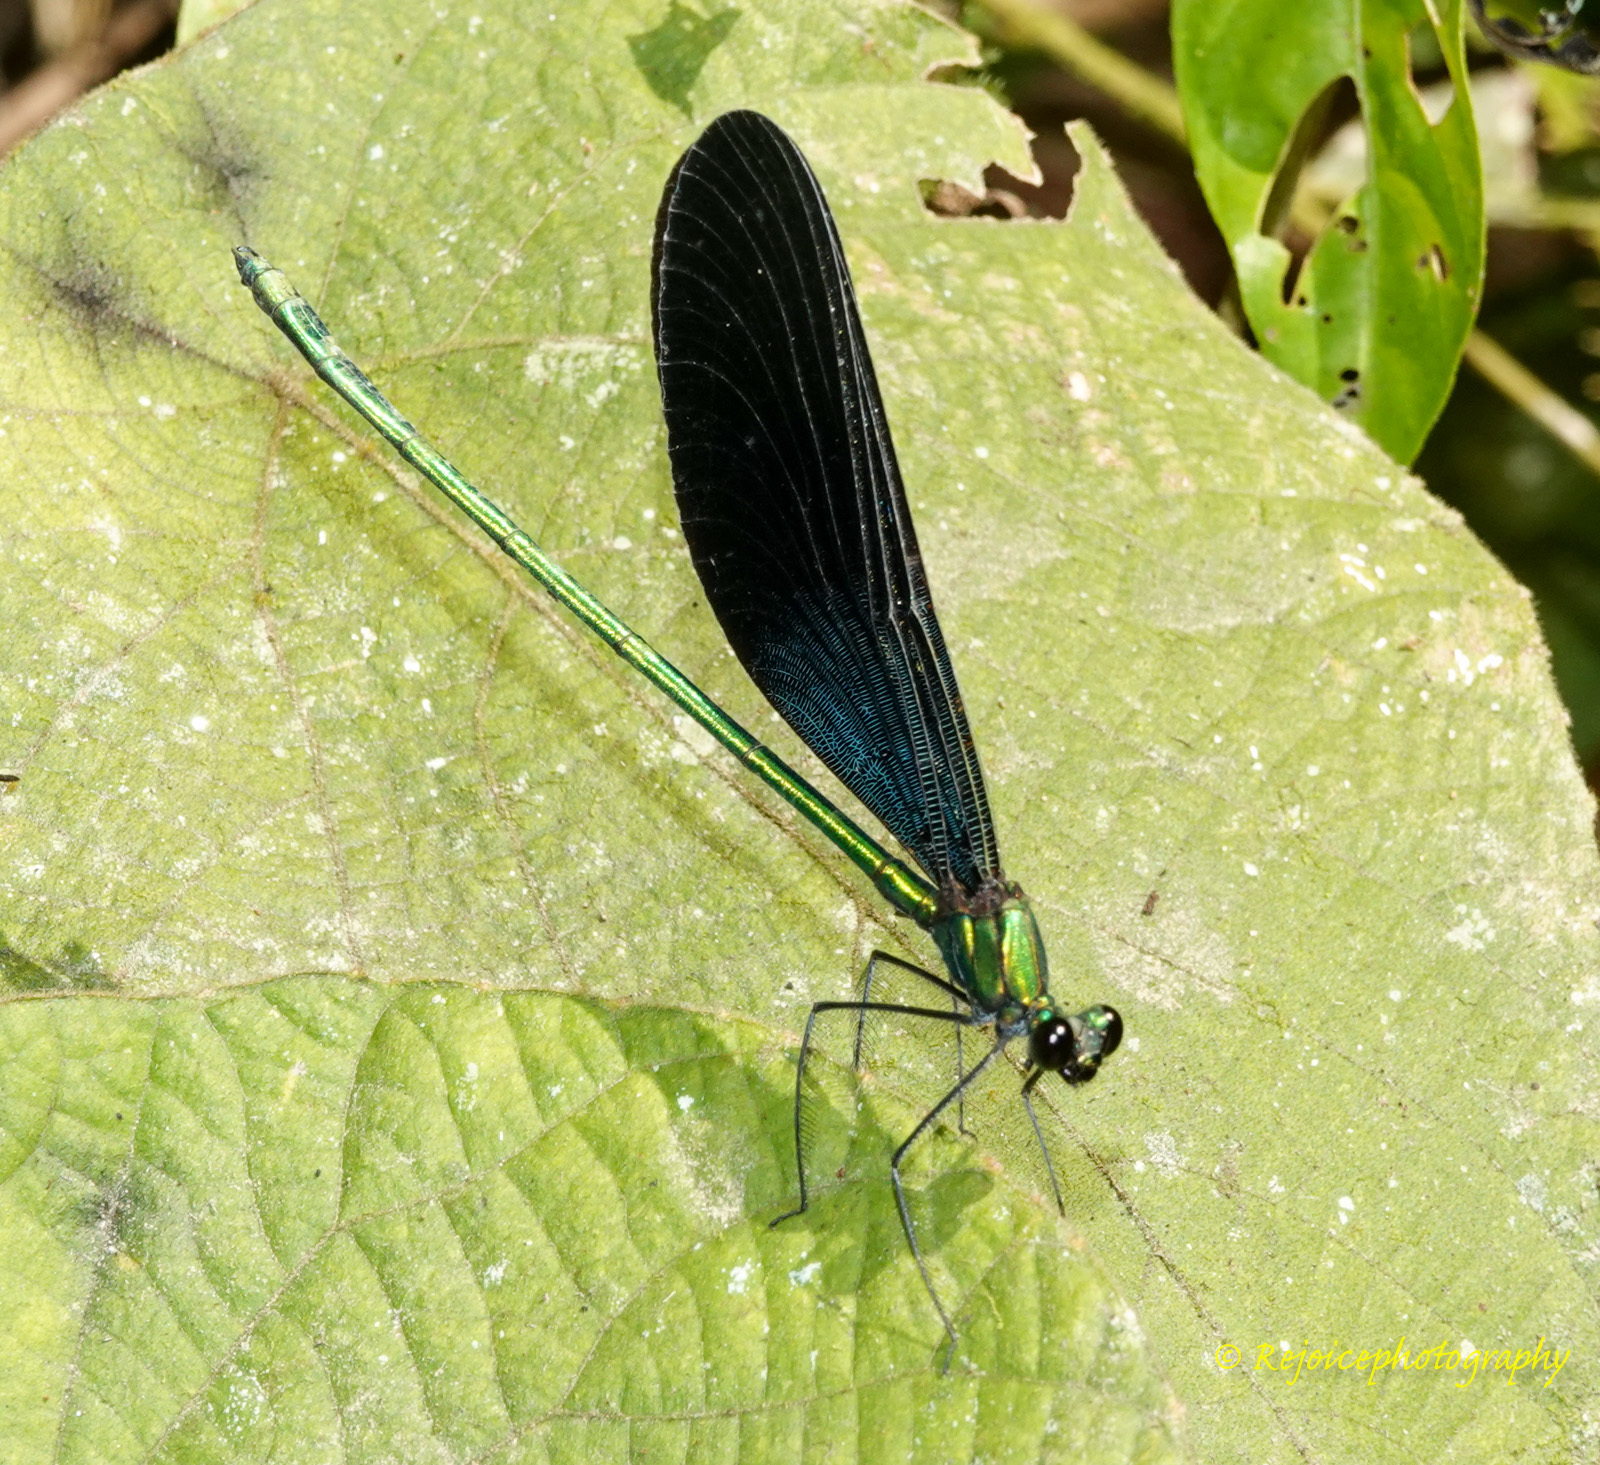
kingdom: Animalia
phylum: Arthropoda
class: Insecta
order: Odonata
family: Calopterygidae
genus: Matrona
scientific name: Matrona nigripectus
